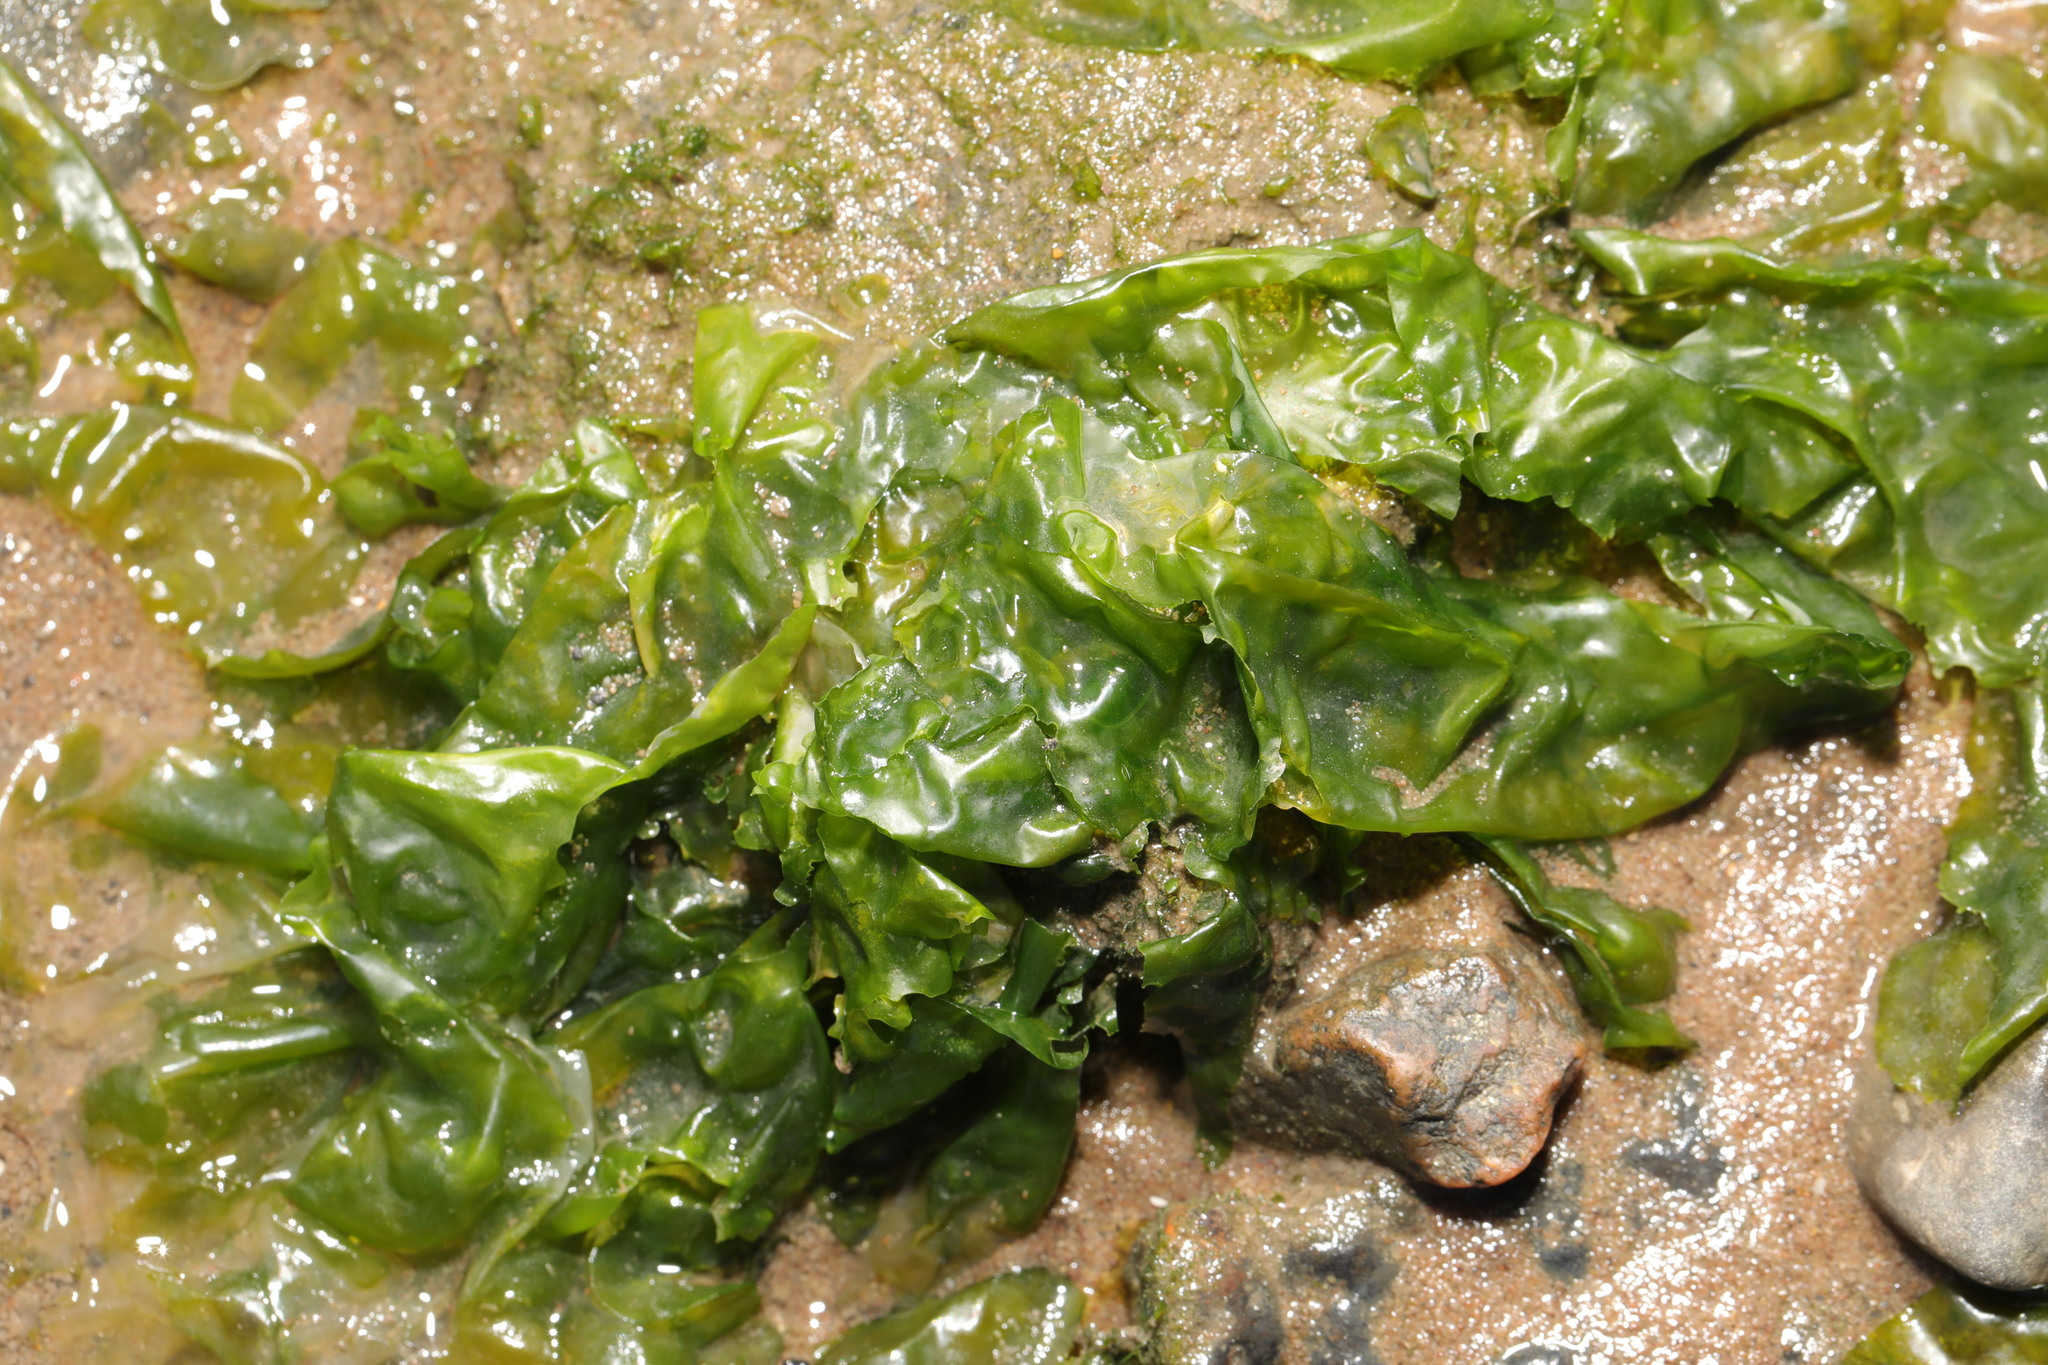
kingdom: Plantae
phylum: Chlorophyta
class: Ulvophyceae
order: Ulvales
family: Ulvaceae
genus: Ulva
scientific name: Ulva lactuca
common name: Sea lettuce
